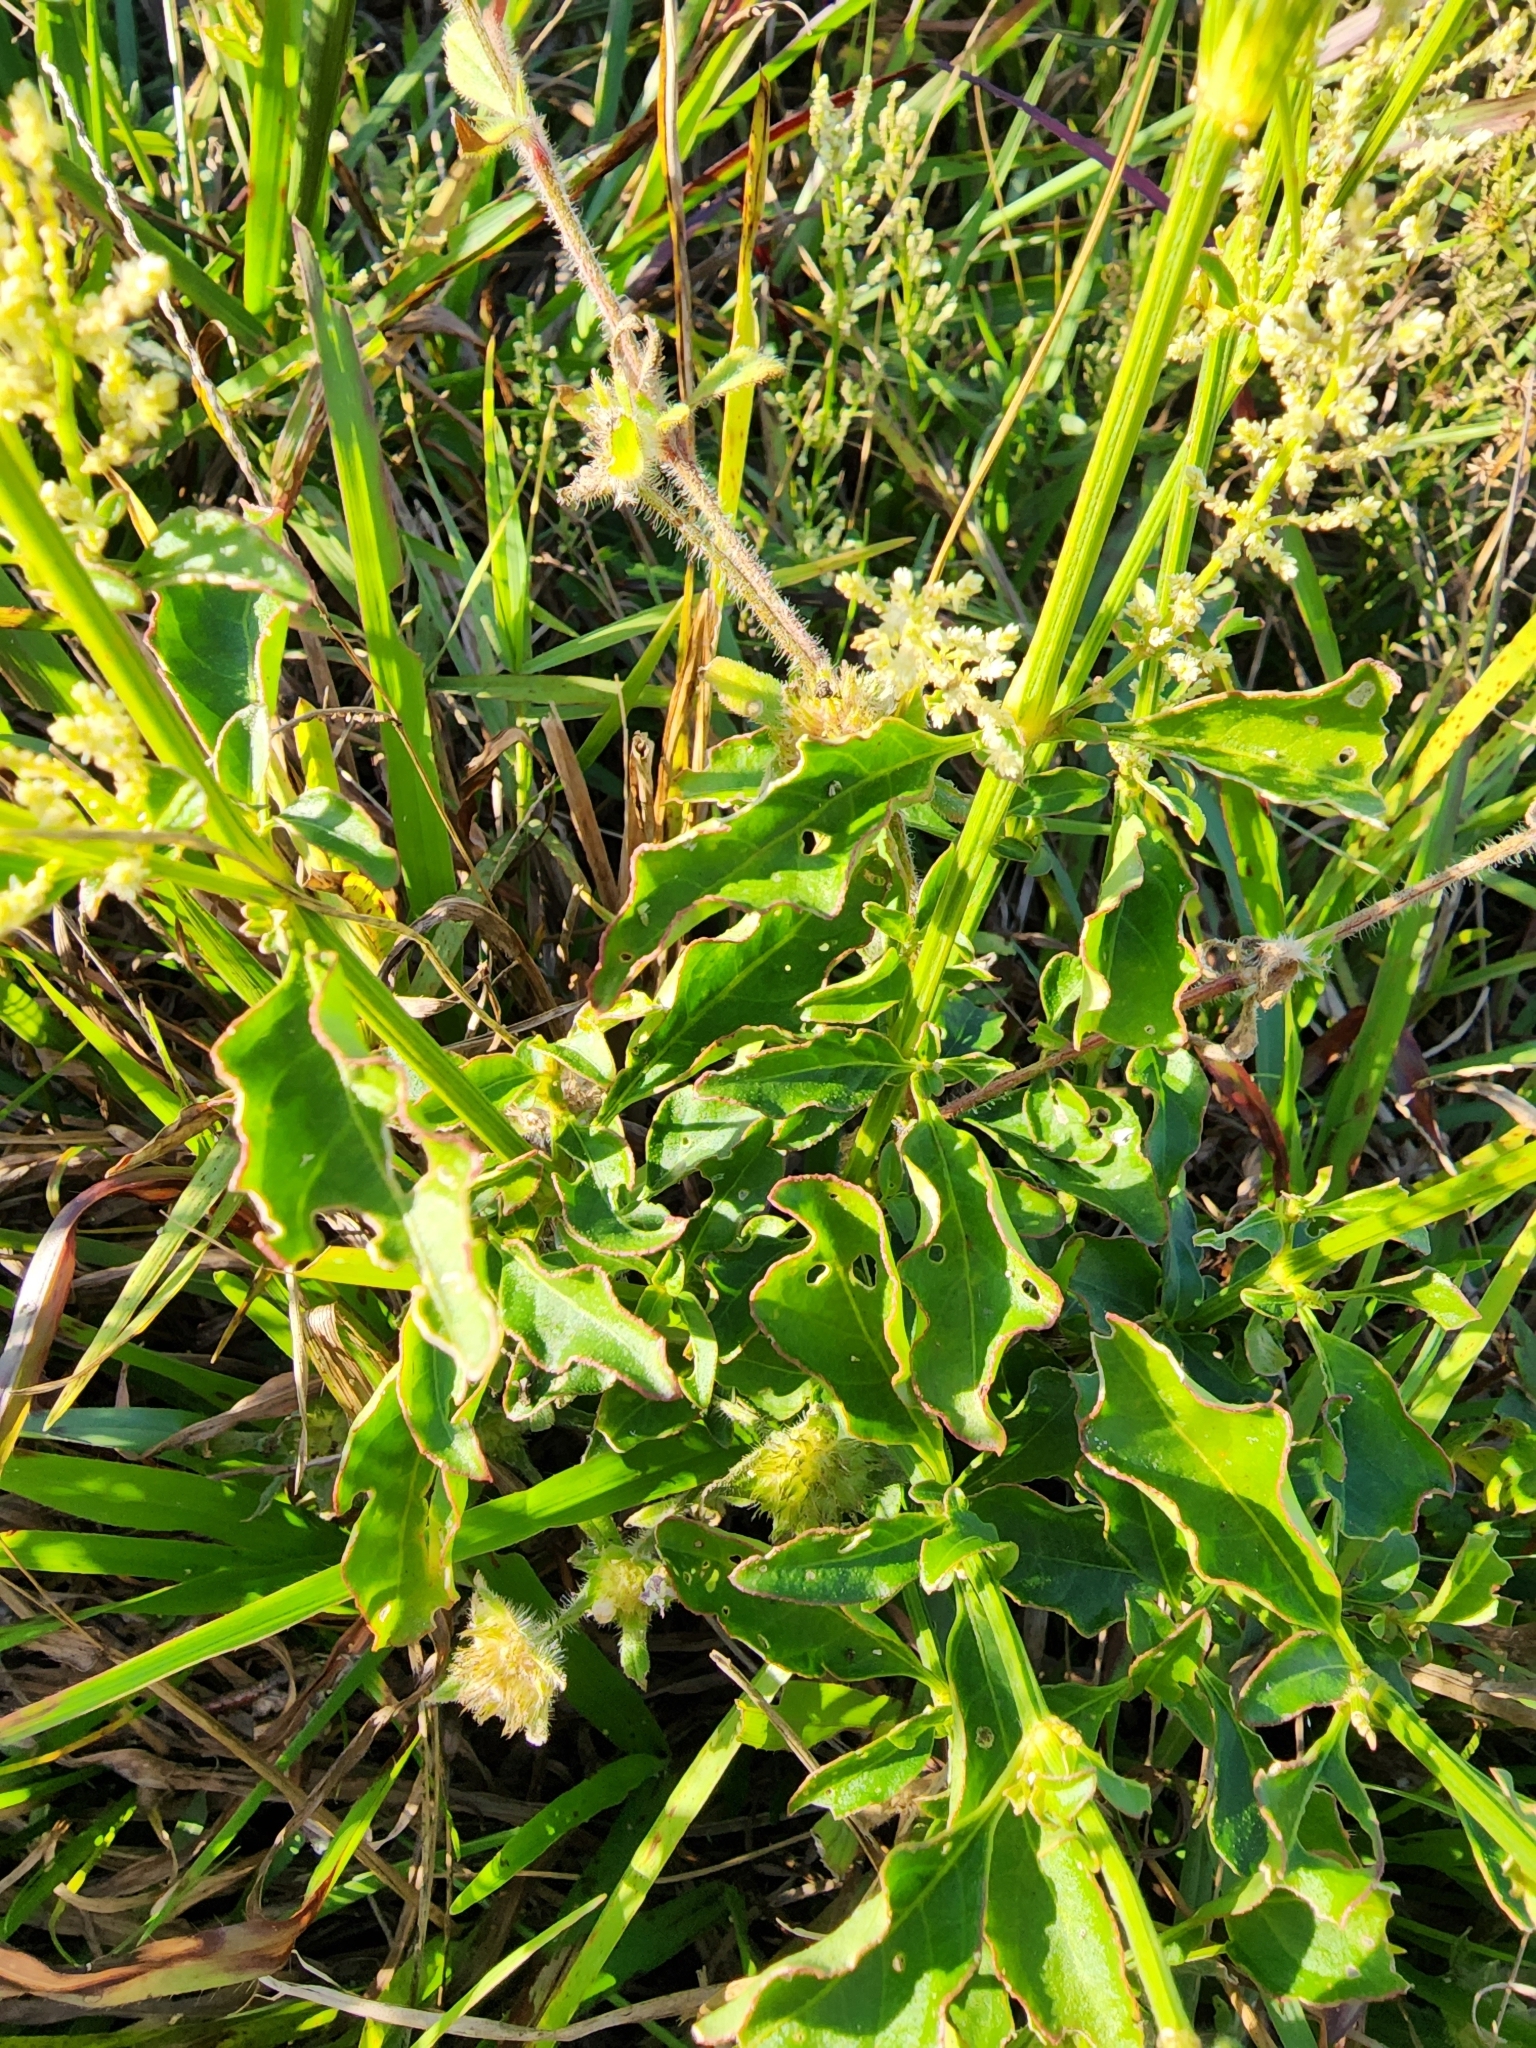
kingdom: Plantae
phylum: Tracheophyta
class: Magnoliopsida
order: Caryophyllales
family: Amaranthaceae
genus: Iresine
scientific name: Iresine diffusa
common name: Juba's-bush
